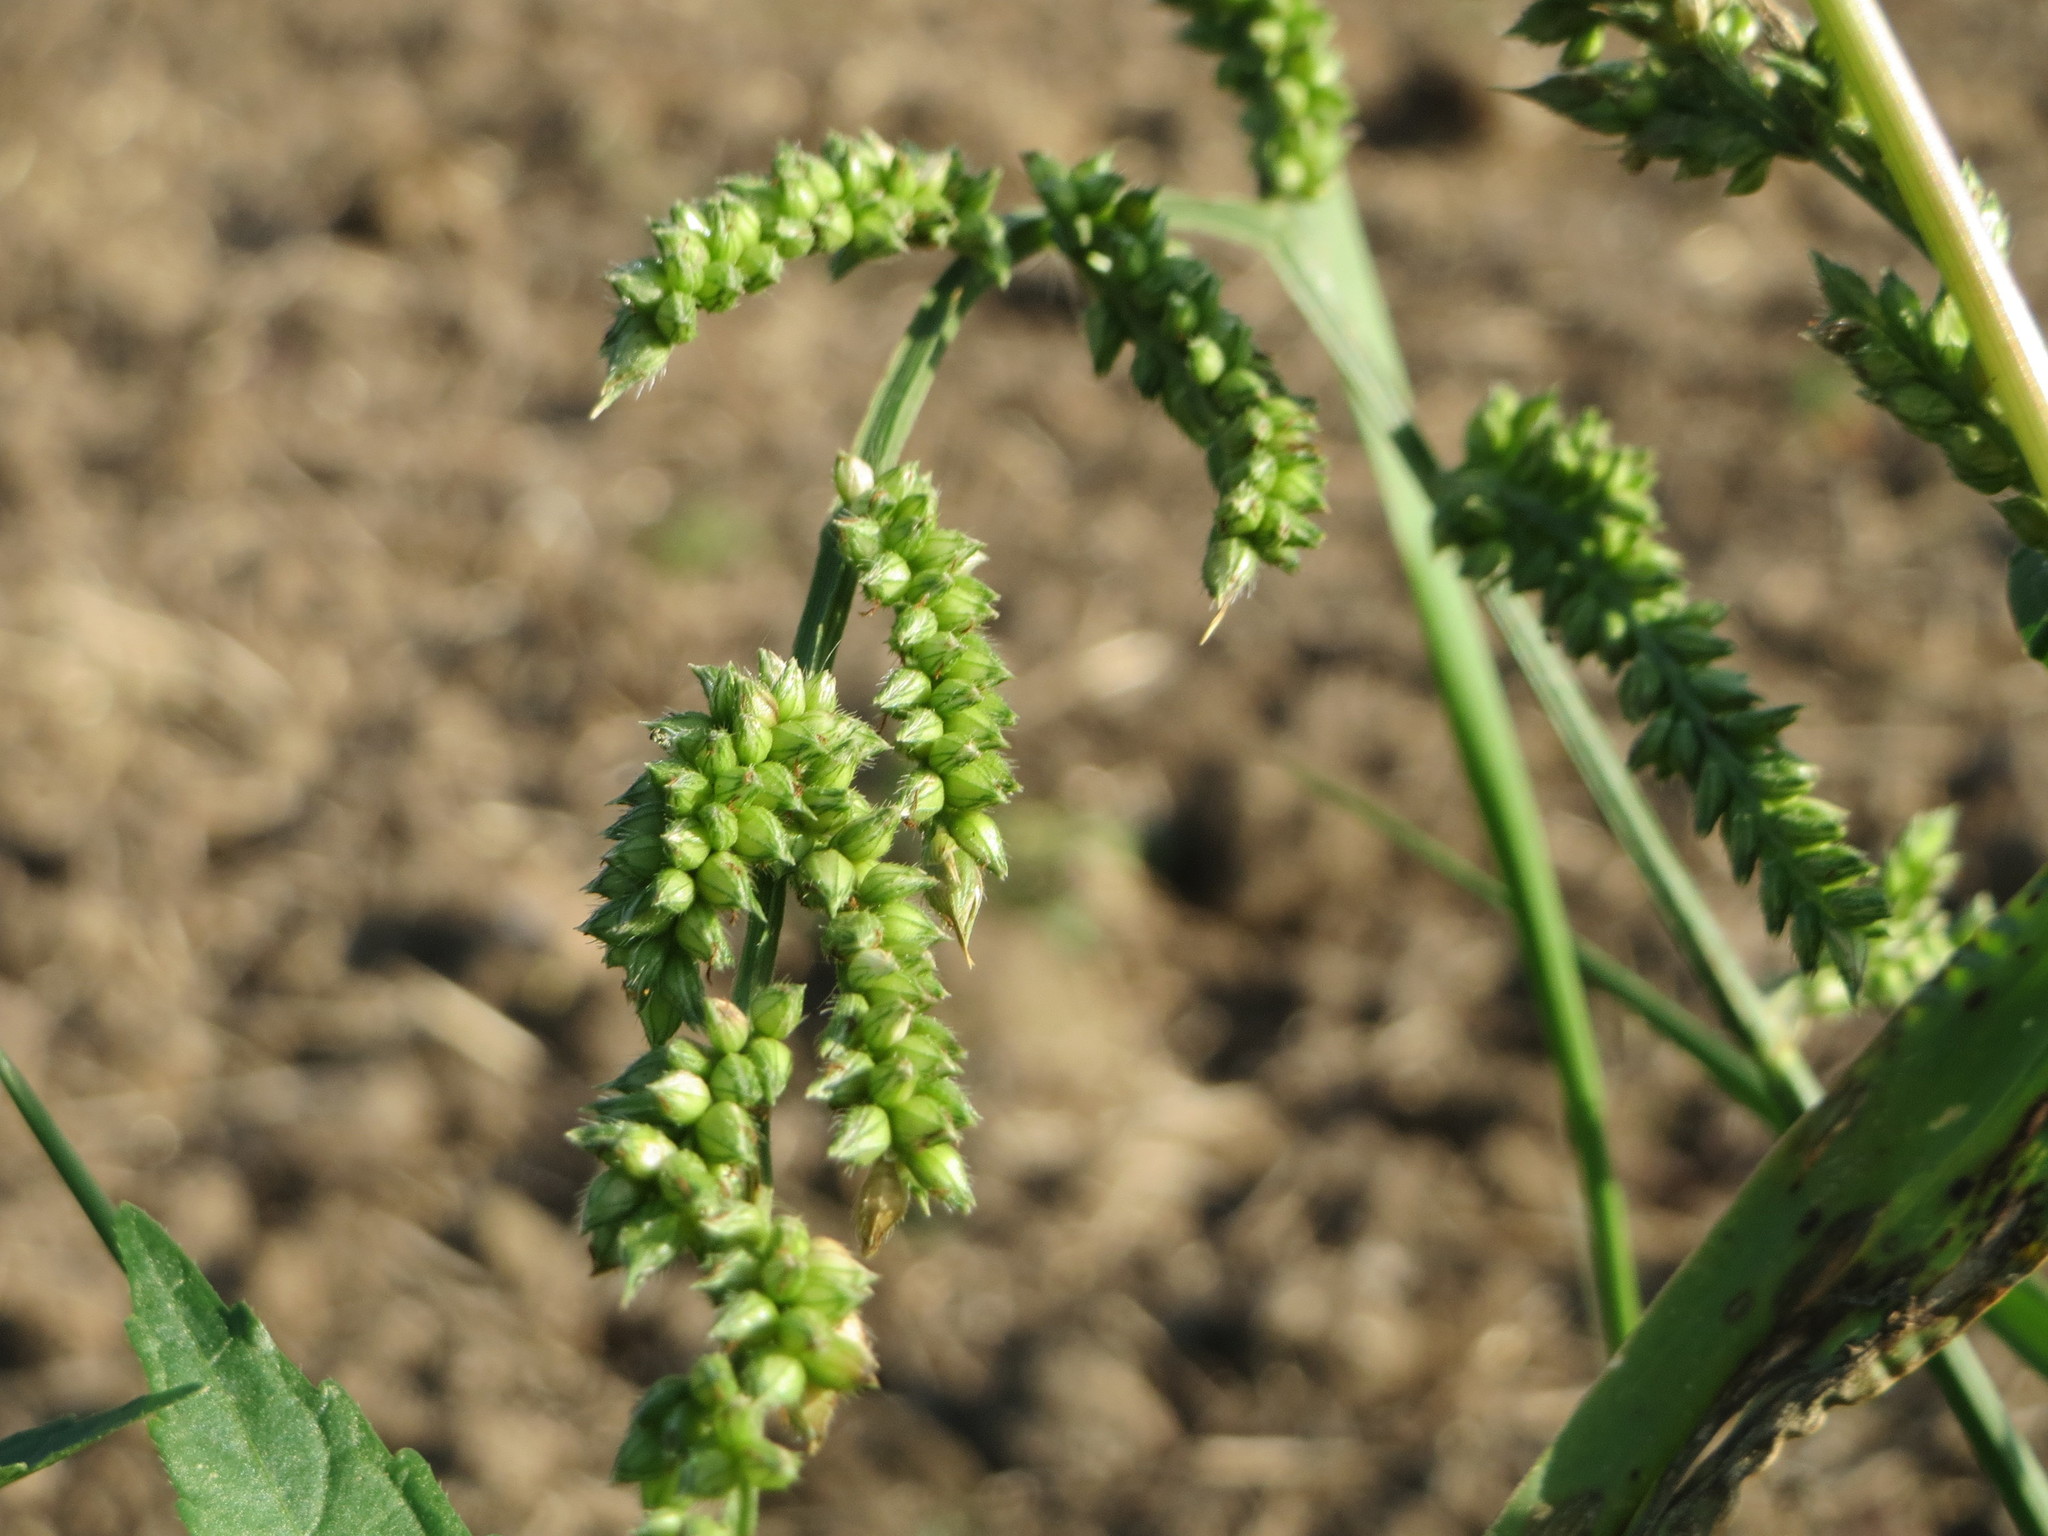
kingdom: Plantae
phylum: Tracheophyta
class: Liliopsida
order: Poales
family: Poaceae
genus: Echinochloa
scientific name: Echinochloa crus-galli
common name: Cockspur
